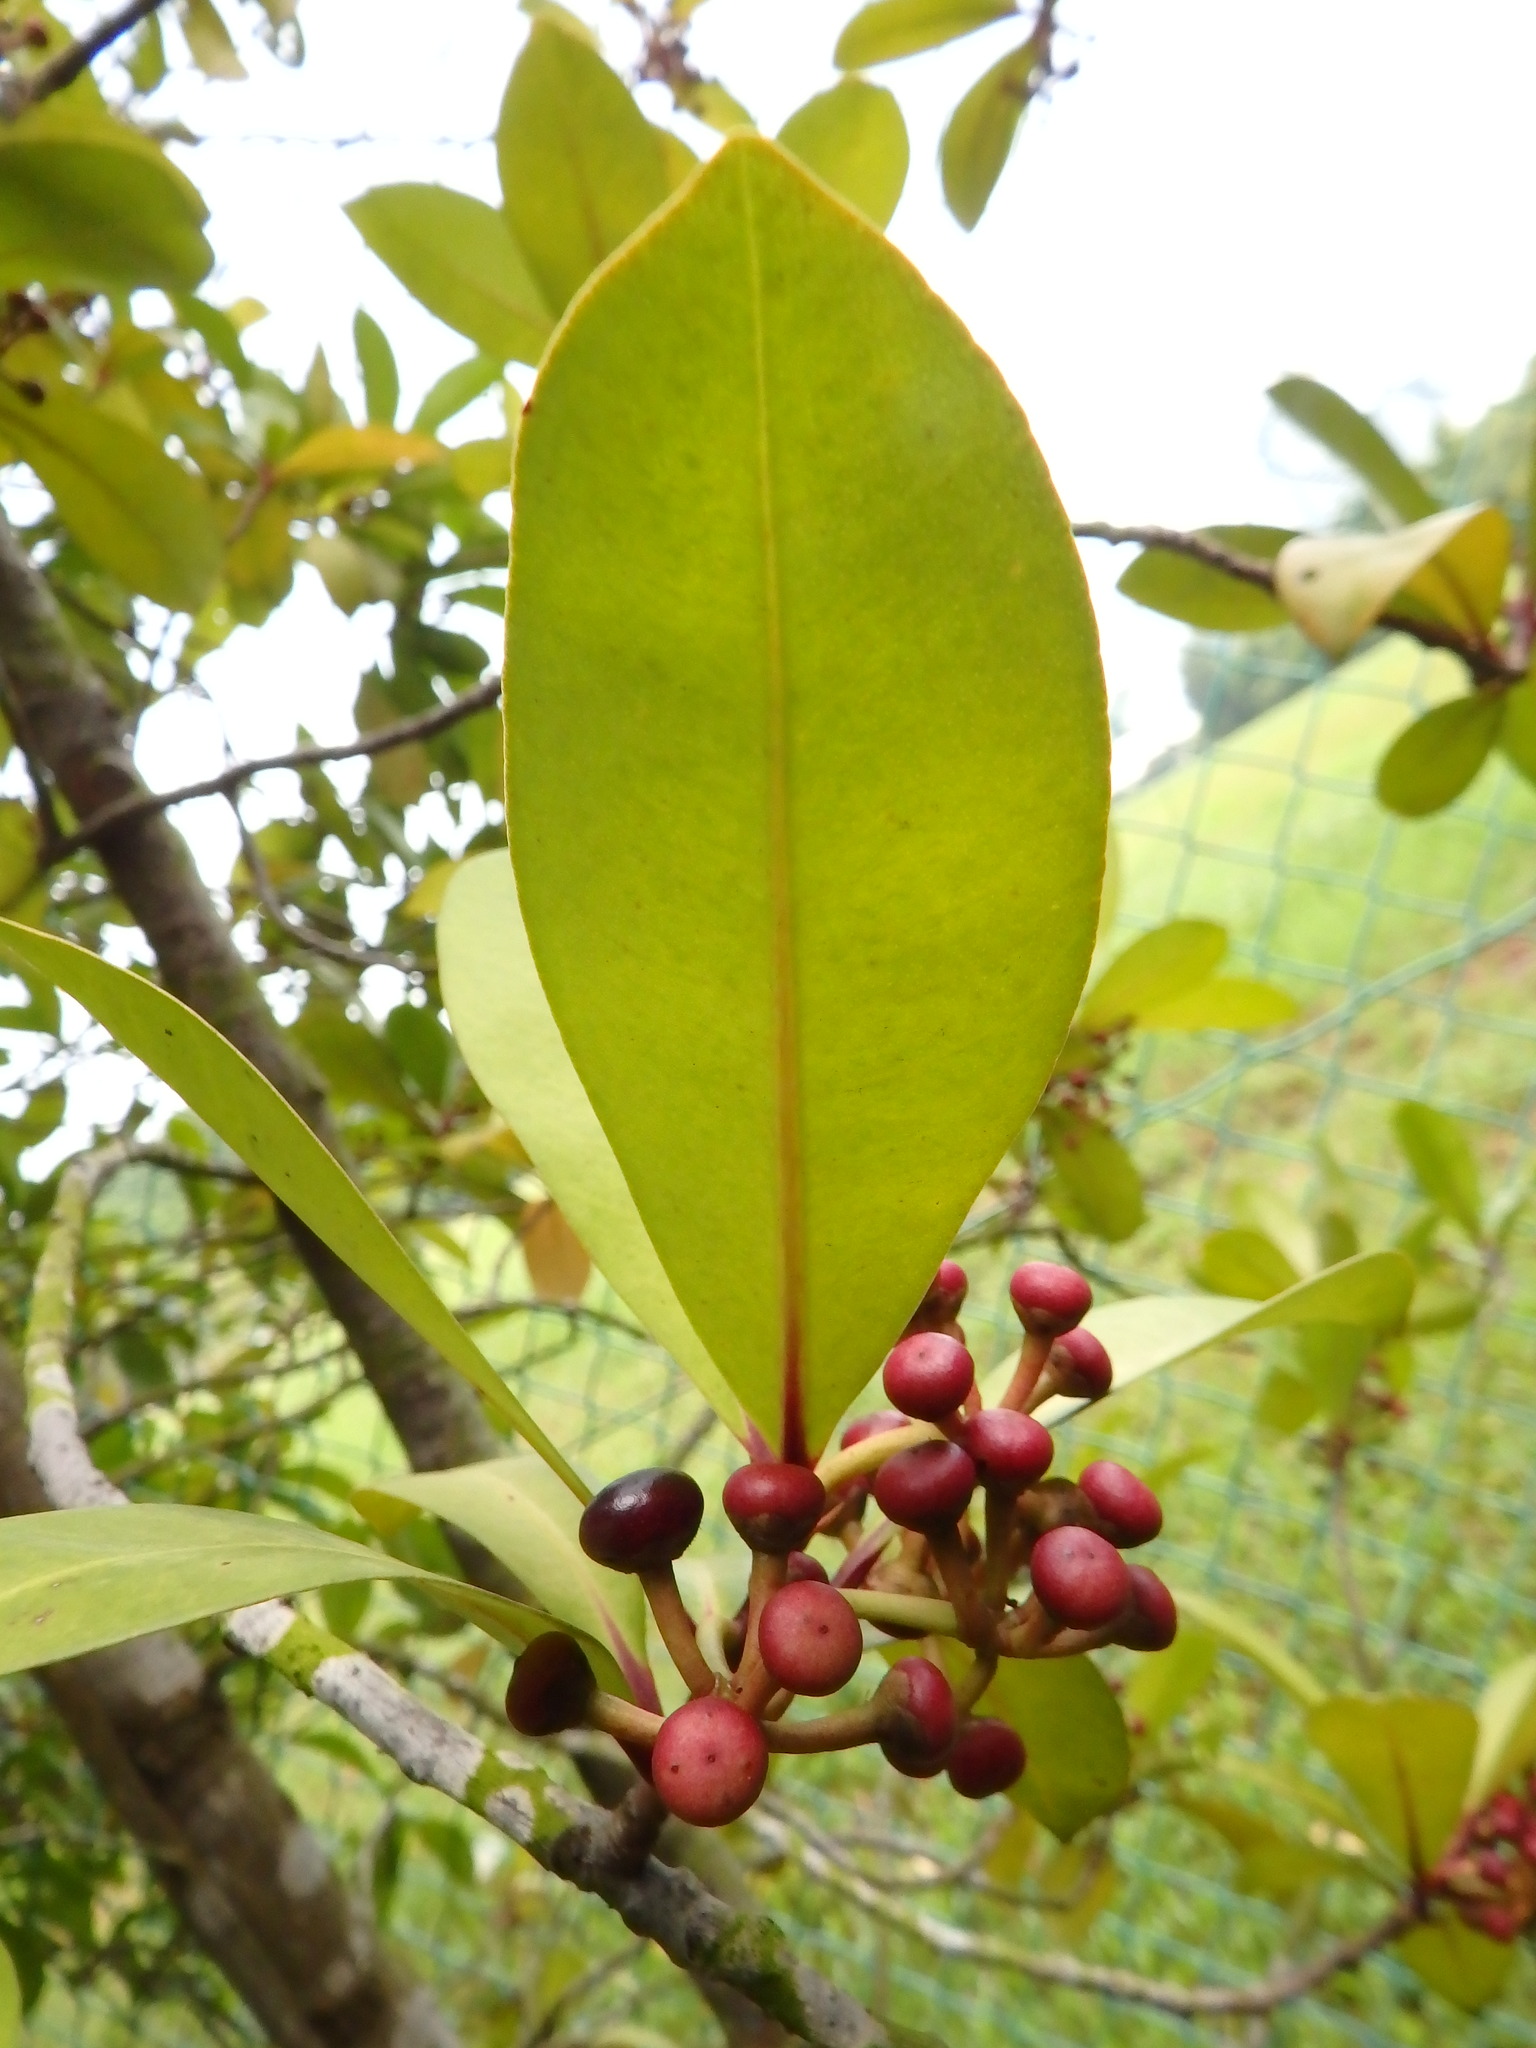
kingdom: Plantae
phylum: Tracheophyta
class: Magnoliopsida
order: Ericales
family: Primulaceae
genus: Ardisia
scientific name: Ardisia elliptica
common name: Shoebutton
